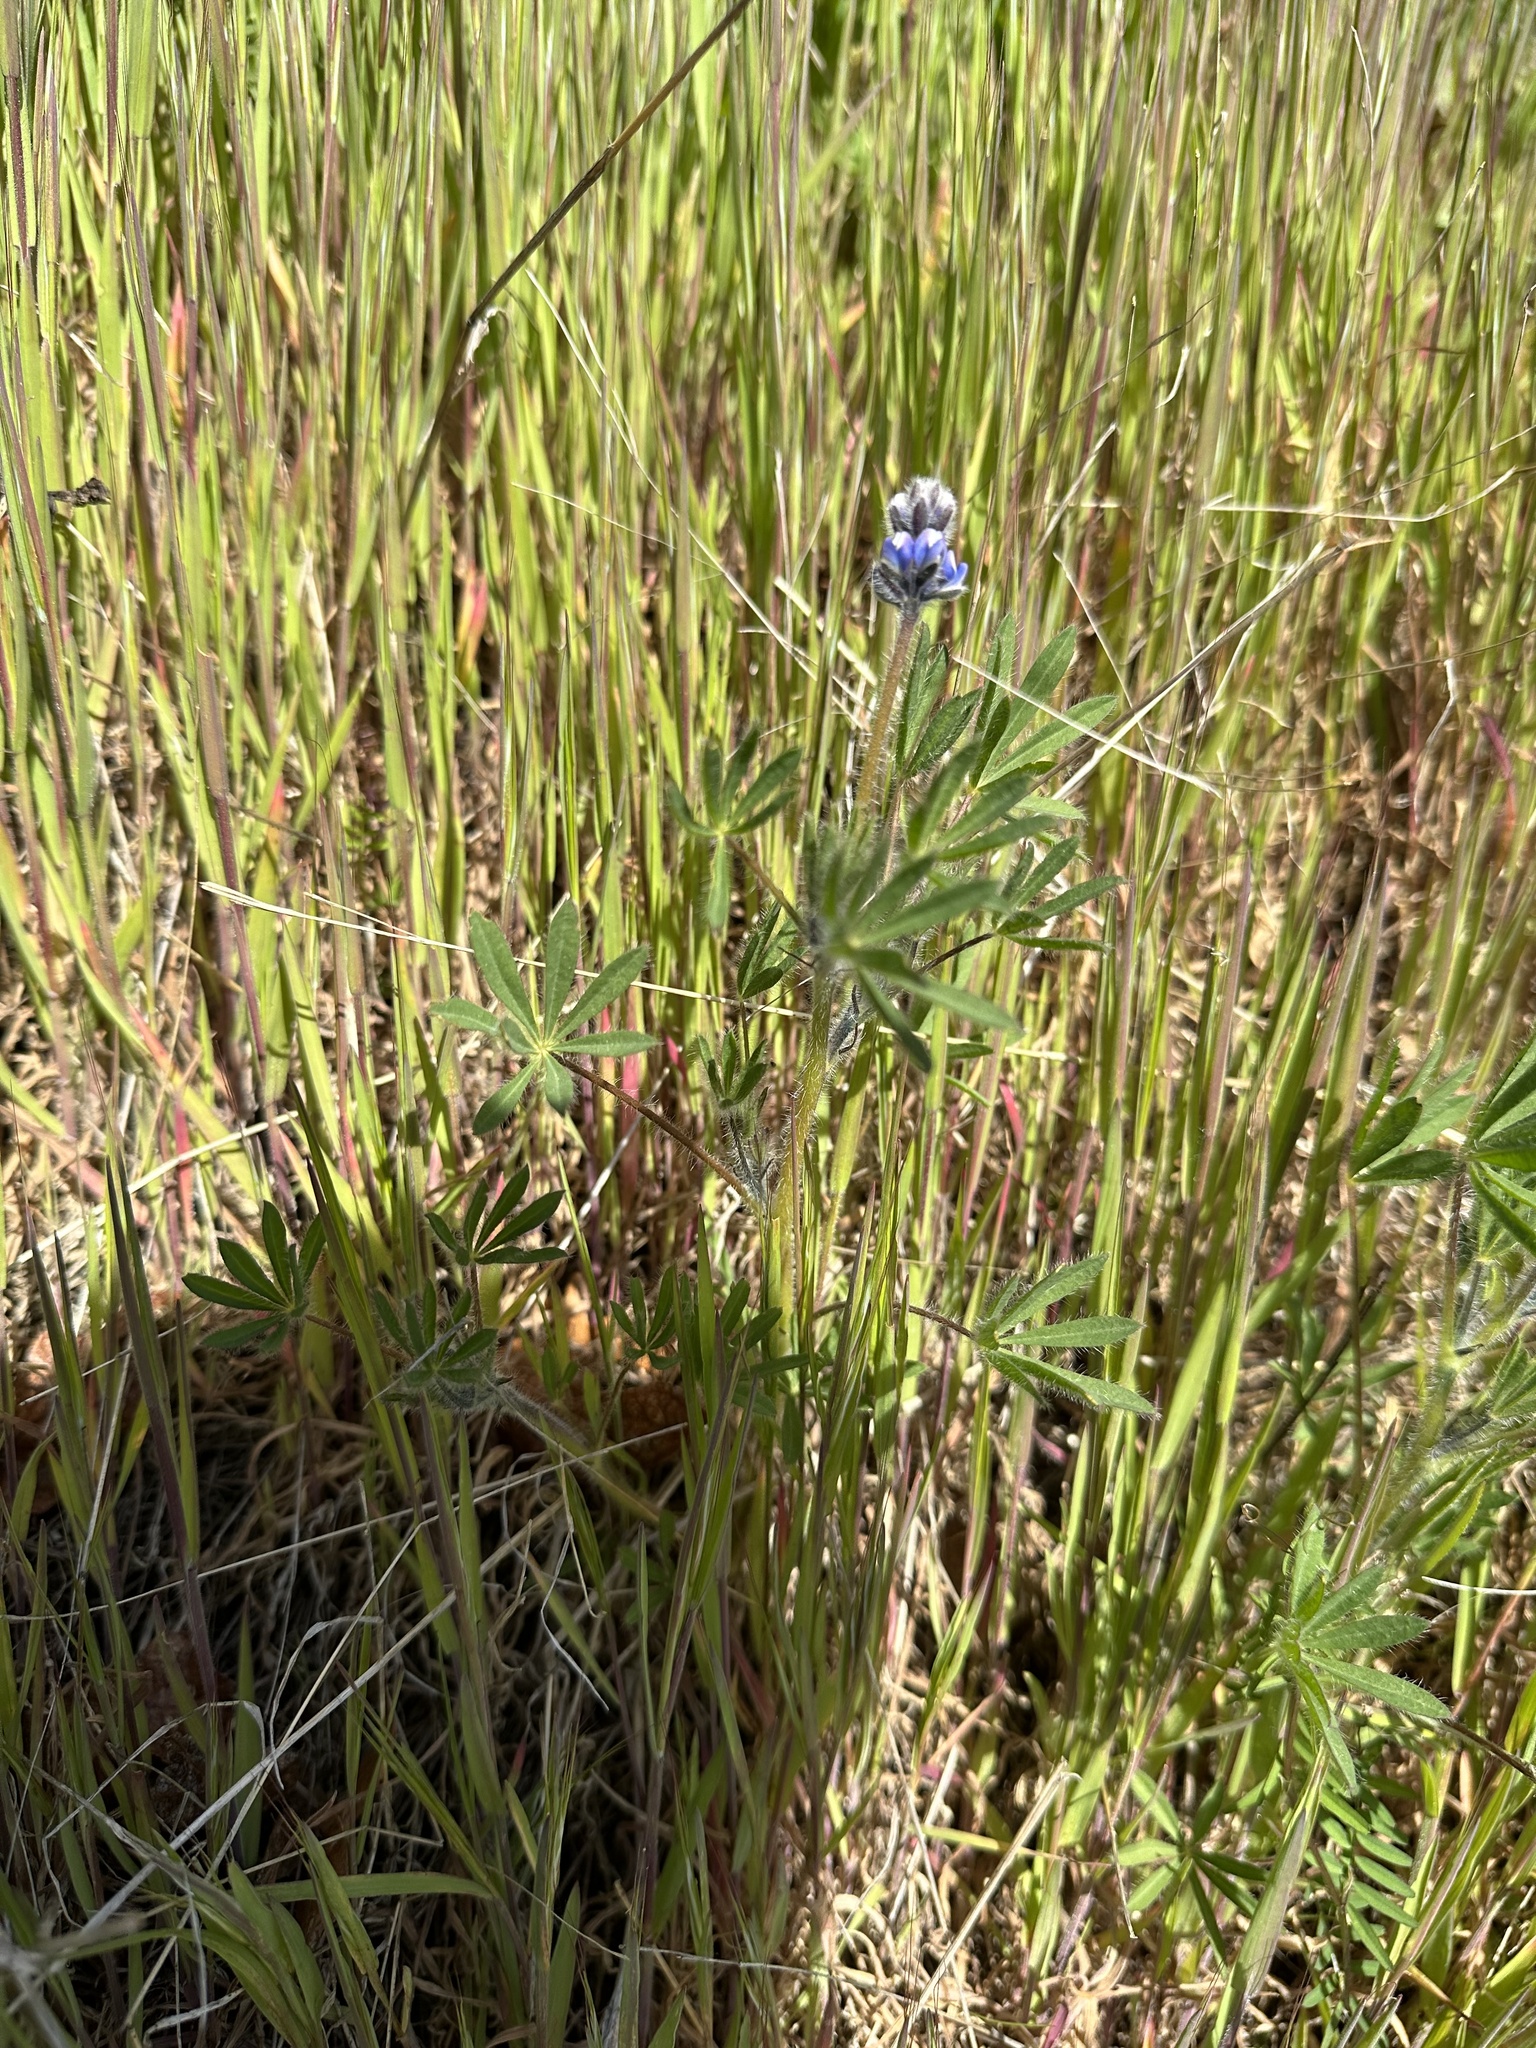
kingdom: Plantae
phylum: Tracheophyta
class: Magnoliopsida
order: Fabales
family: Fabaceae
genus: Lupinus
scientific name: Lupinus bicolor
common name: Miniature lupine
